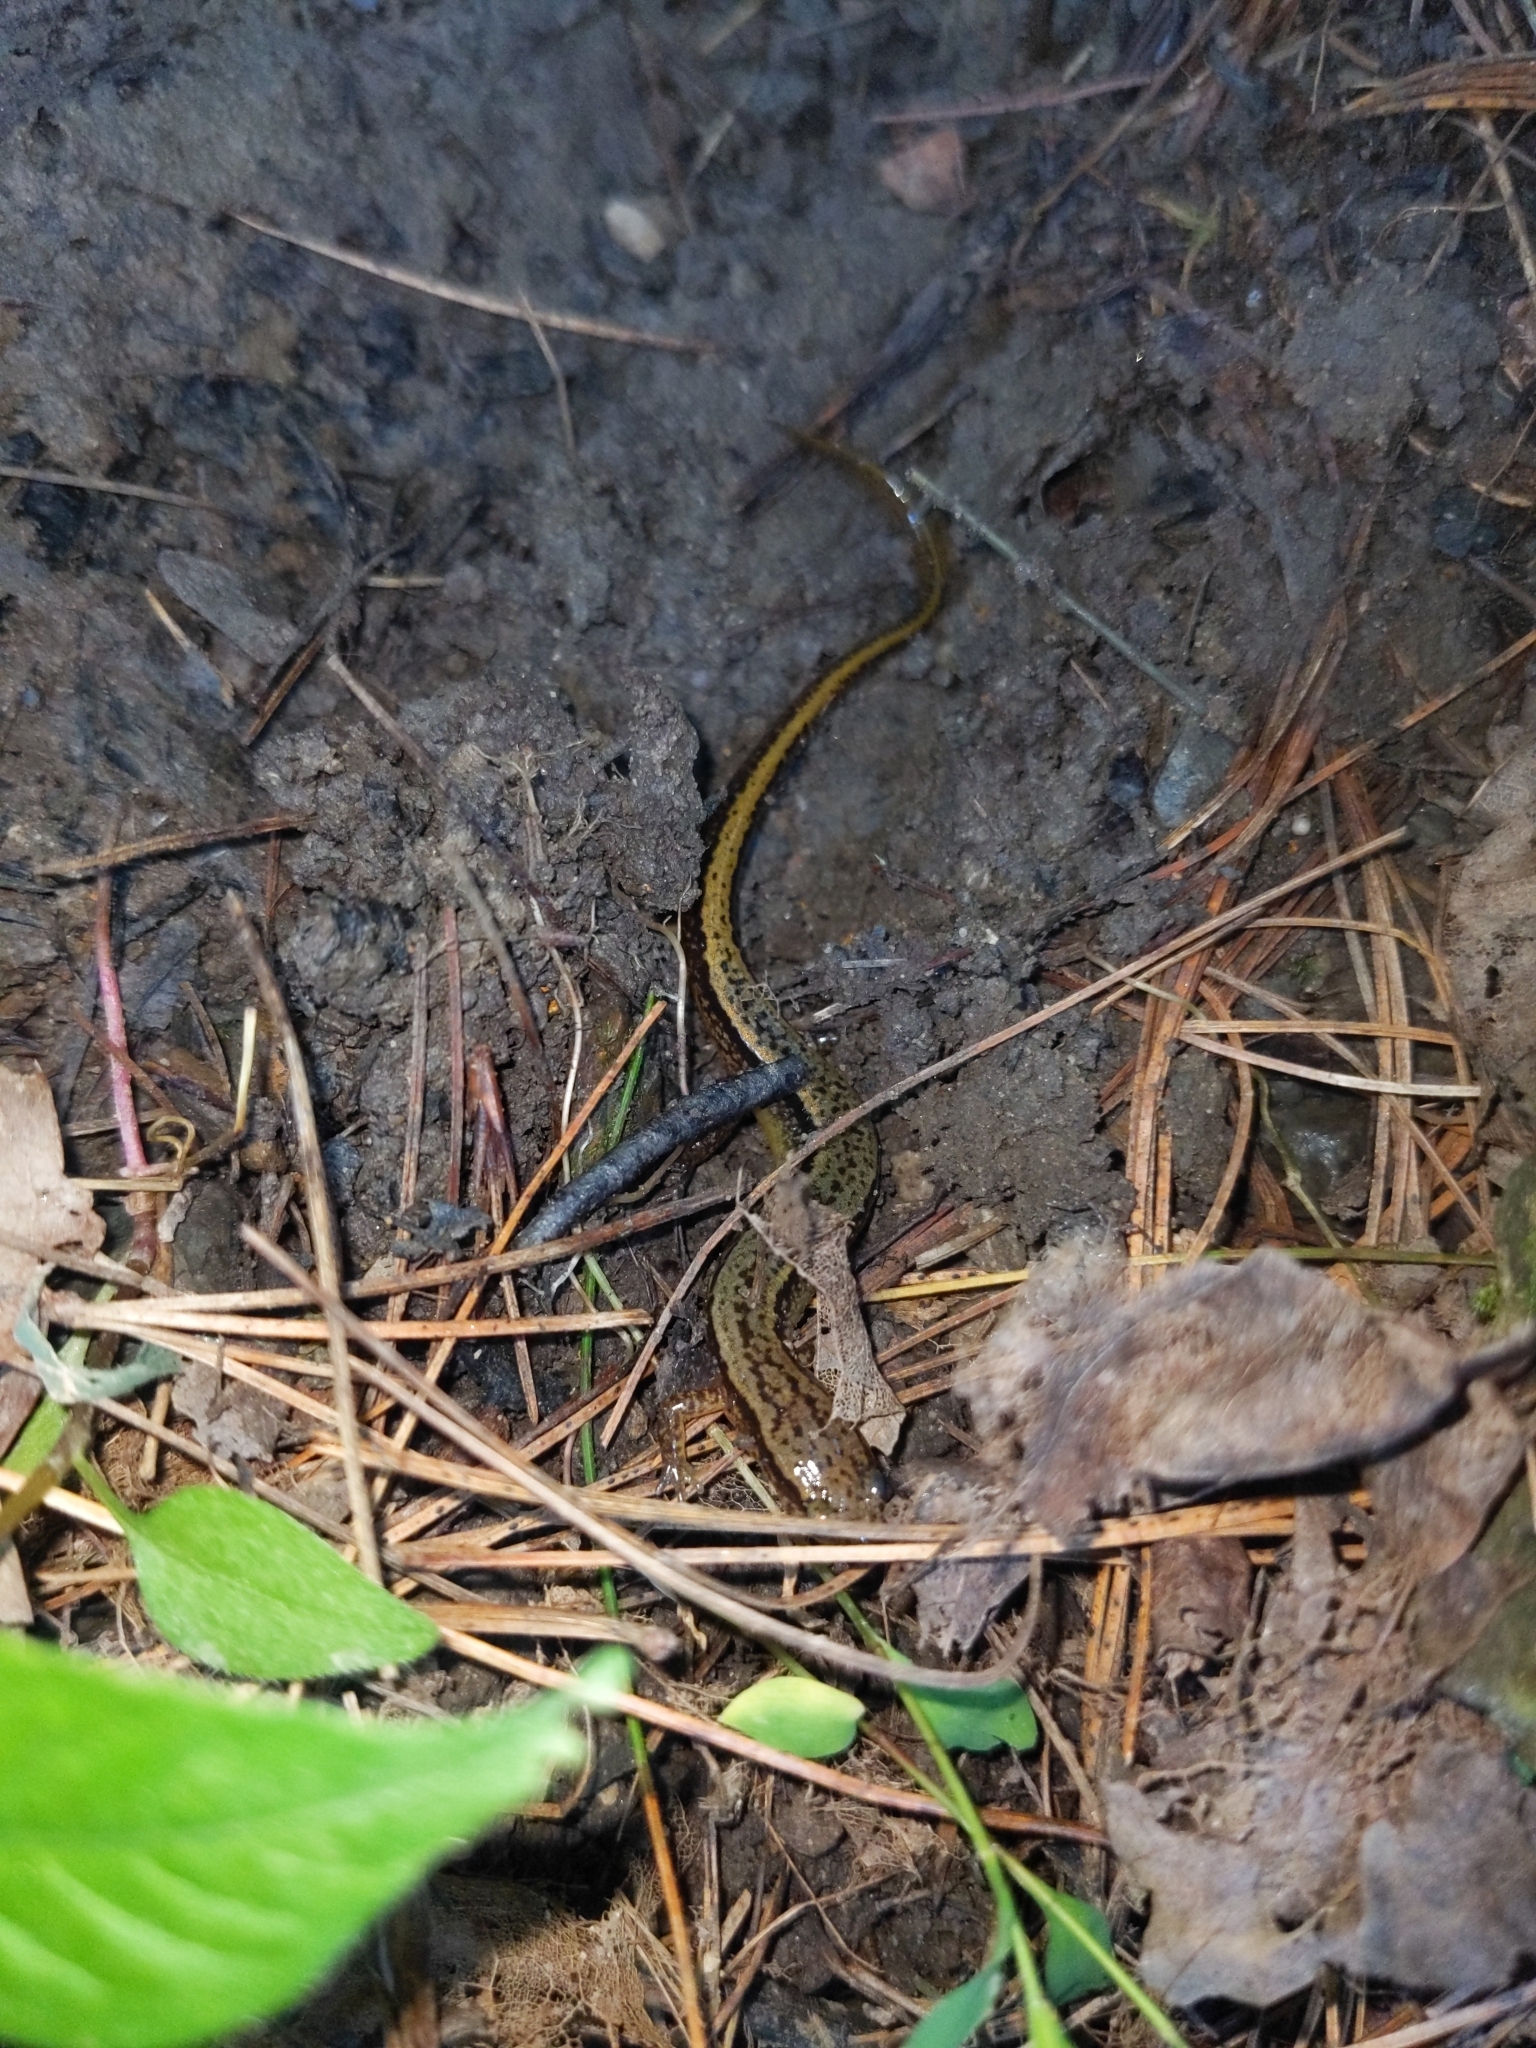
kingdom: Animalia
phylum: Chordata
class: Amphibia
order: Caudata
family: Plethodontidae
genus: Eurycea
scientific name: Eurycea bislineata
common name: Northern two-lined salamander
